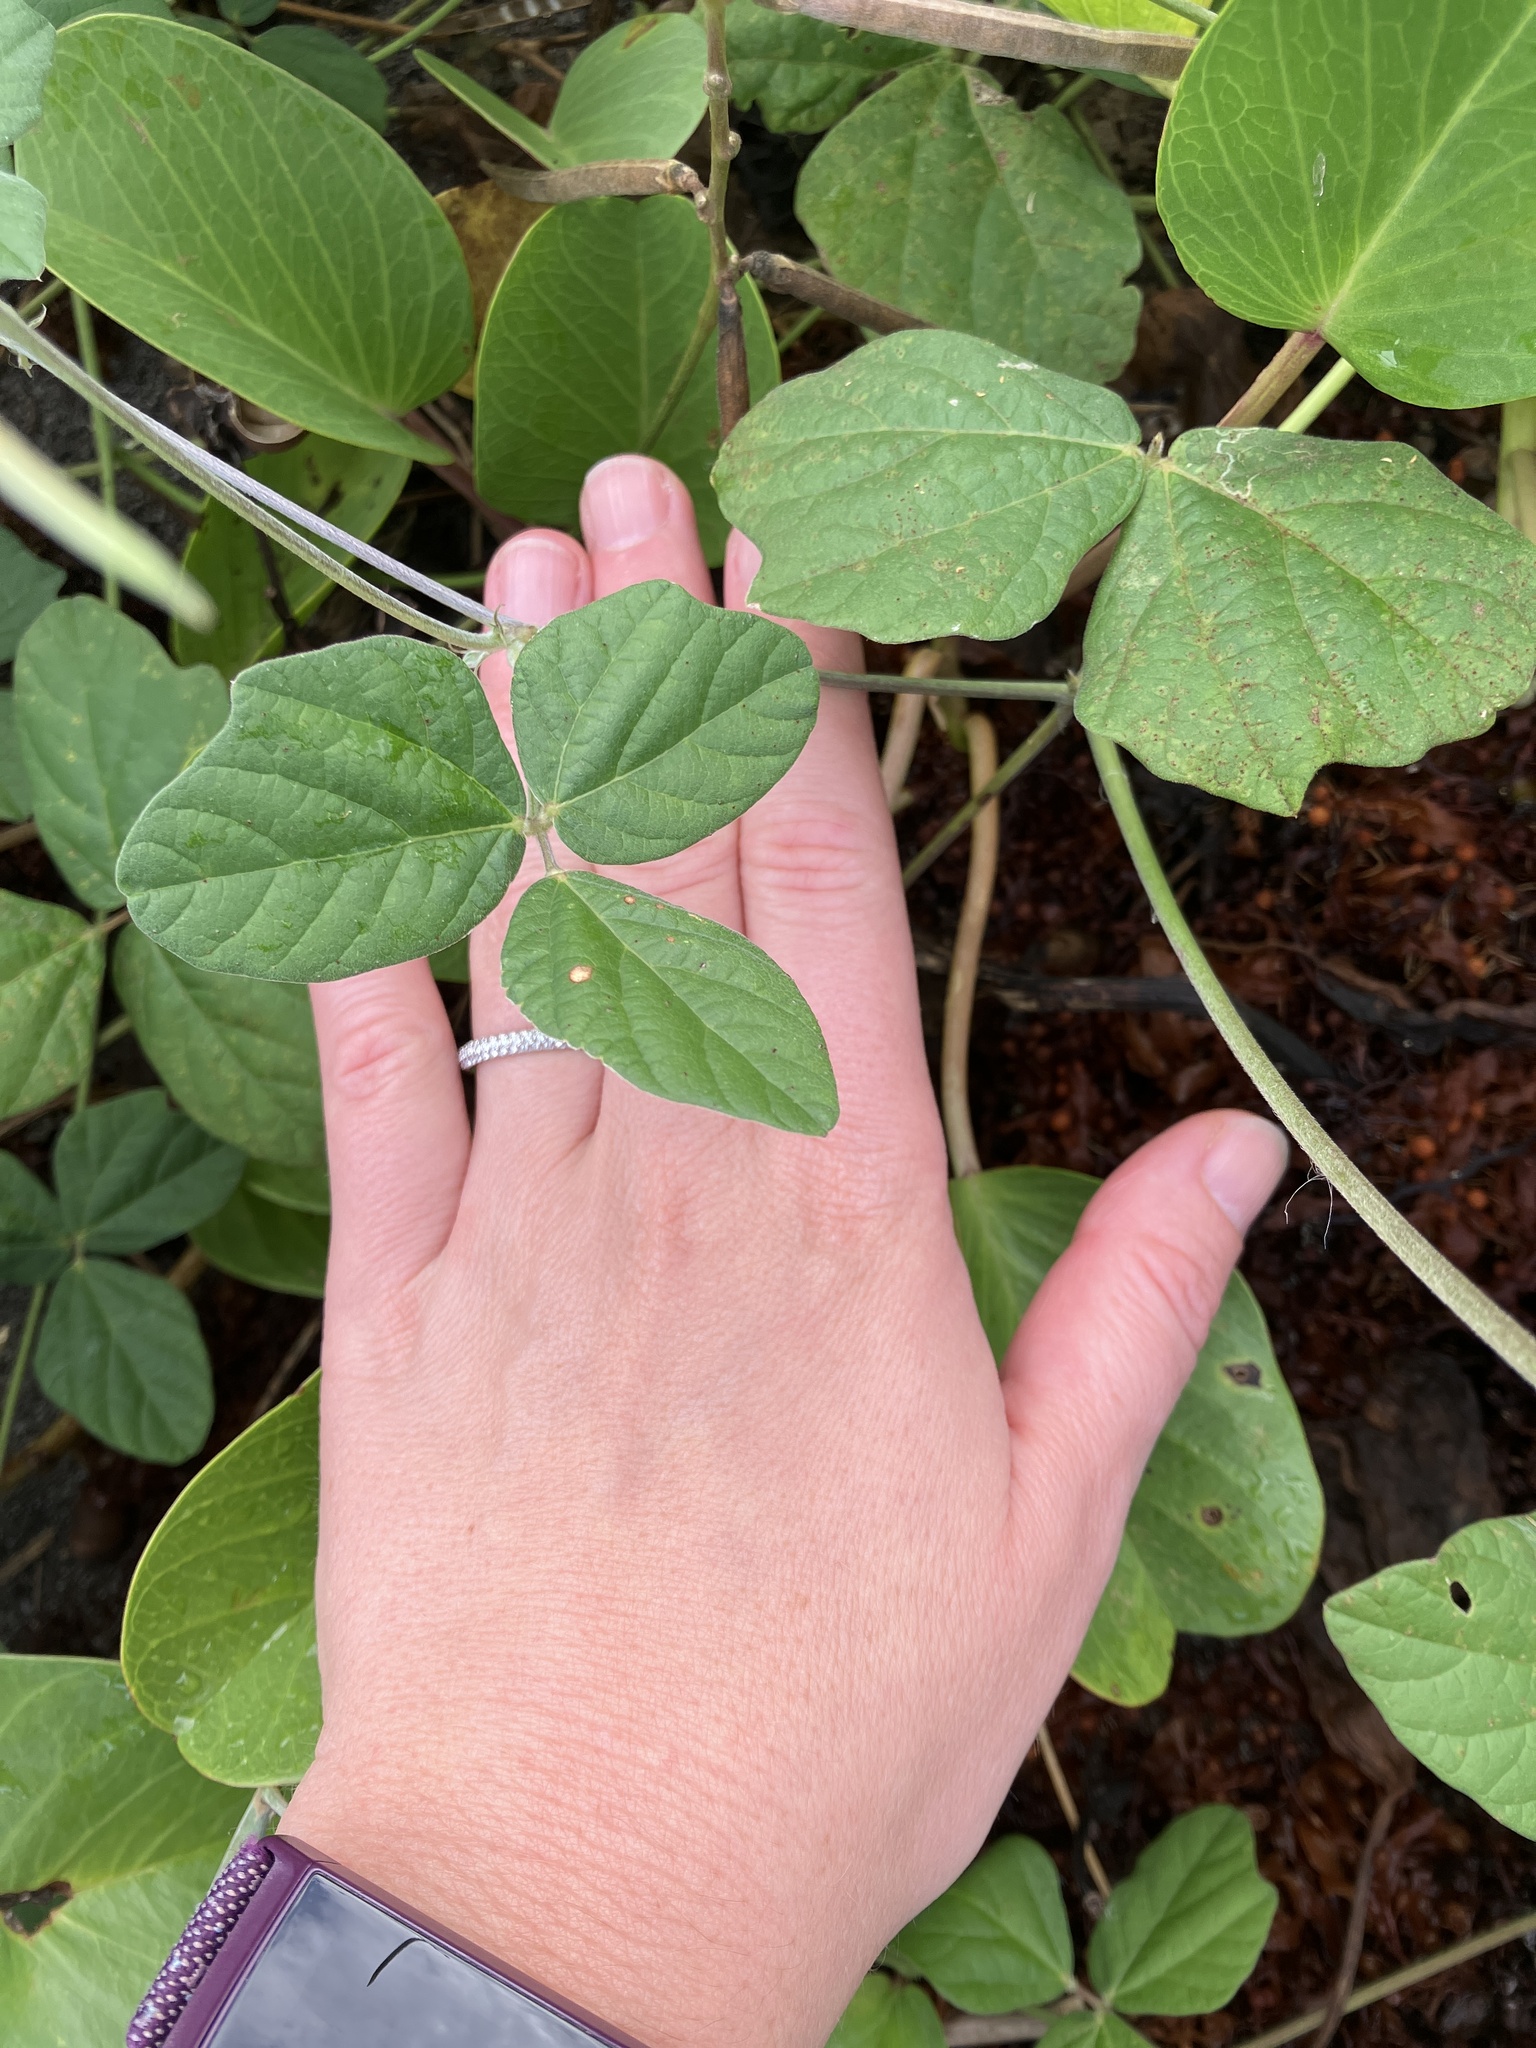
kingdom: Plantae
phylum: Tracheophyta
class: Magnoliopsida
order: Fabales
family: Fabaceae
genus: Macroptilium
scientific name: Macroptilium atropurpureum
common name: Purple bushbean
